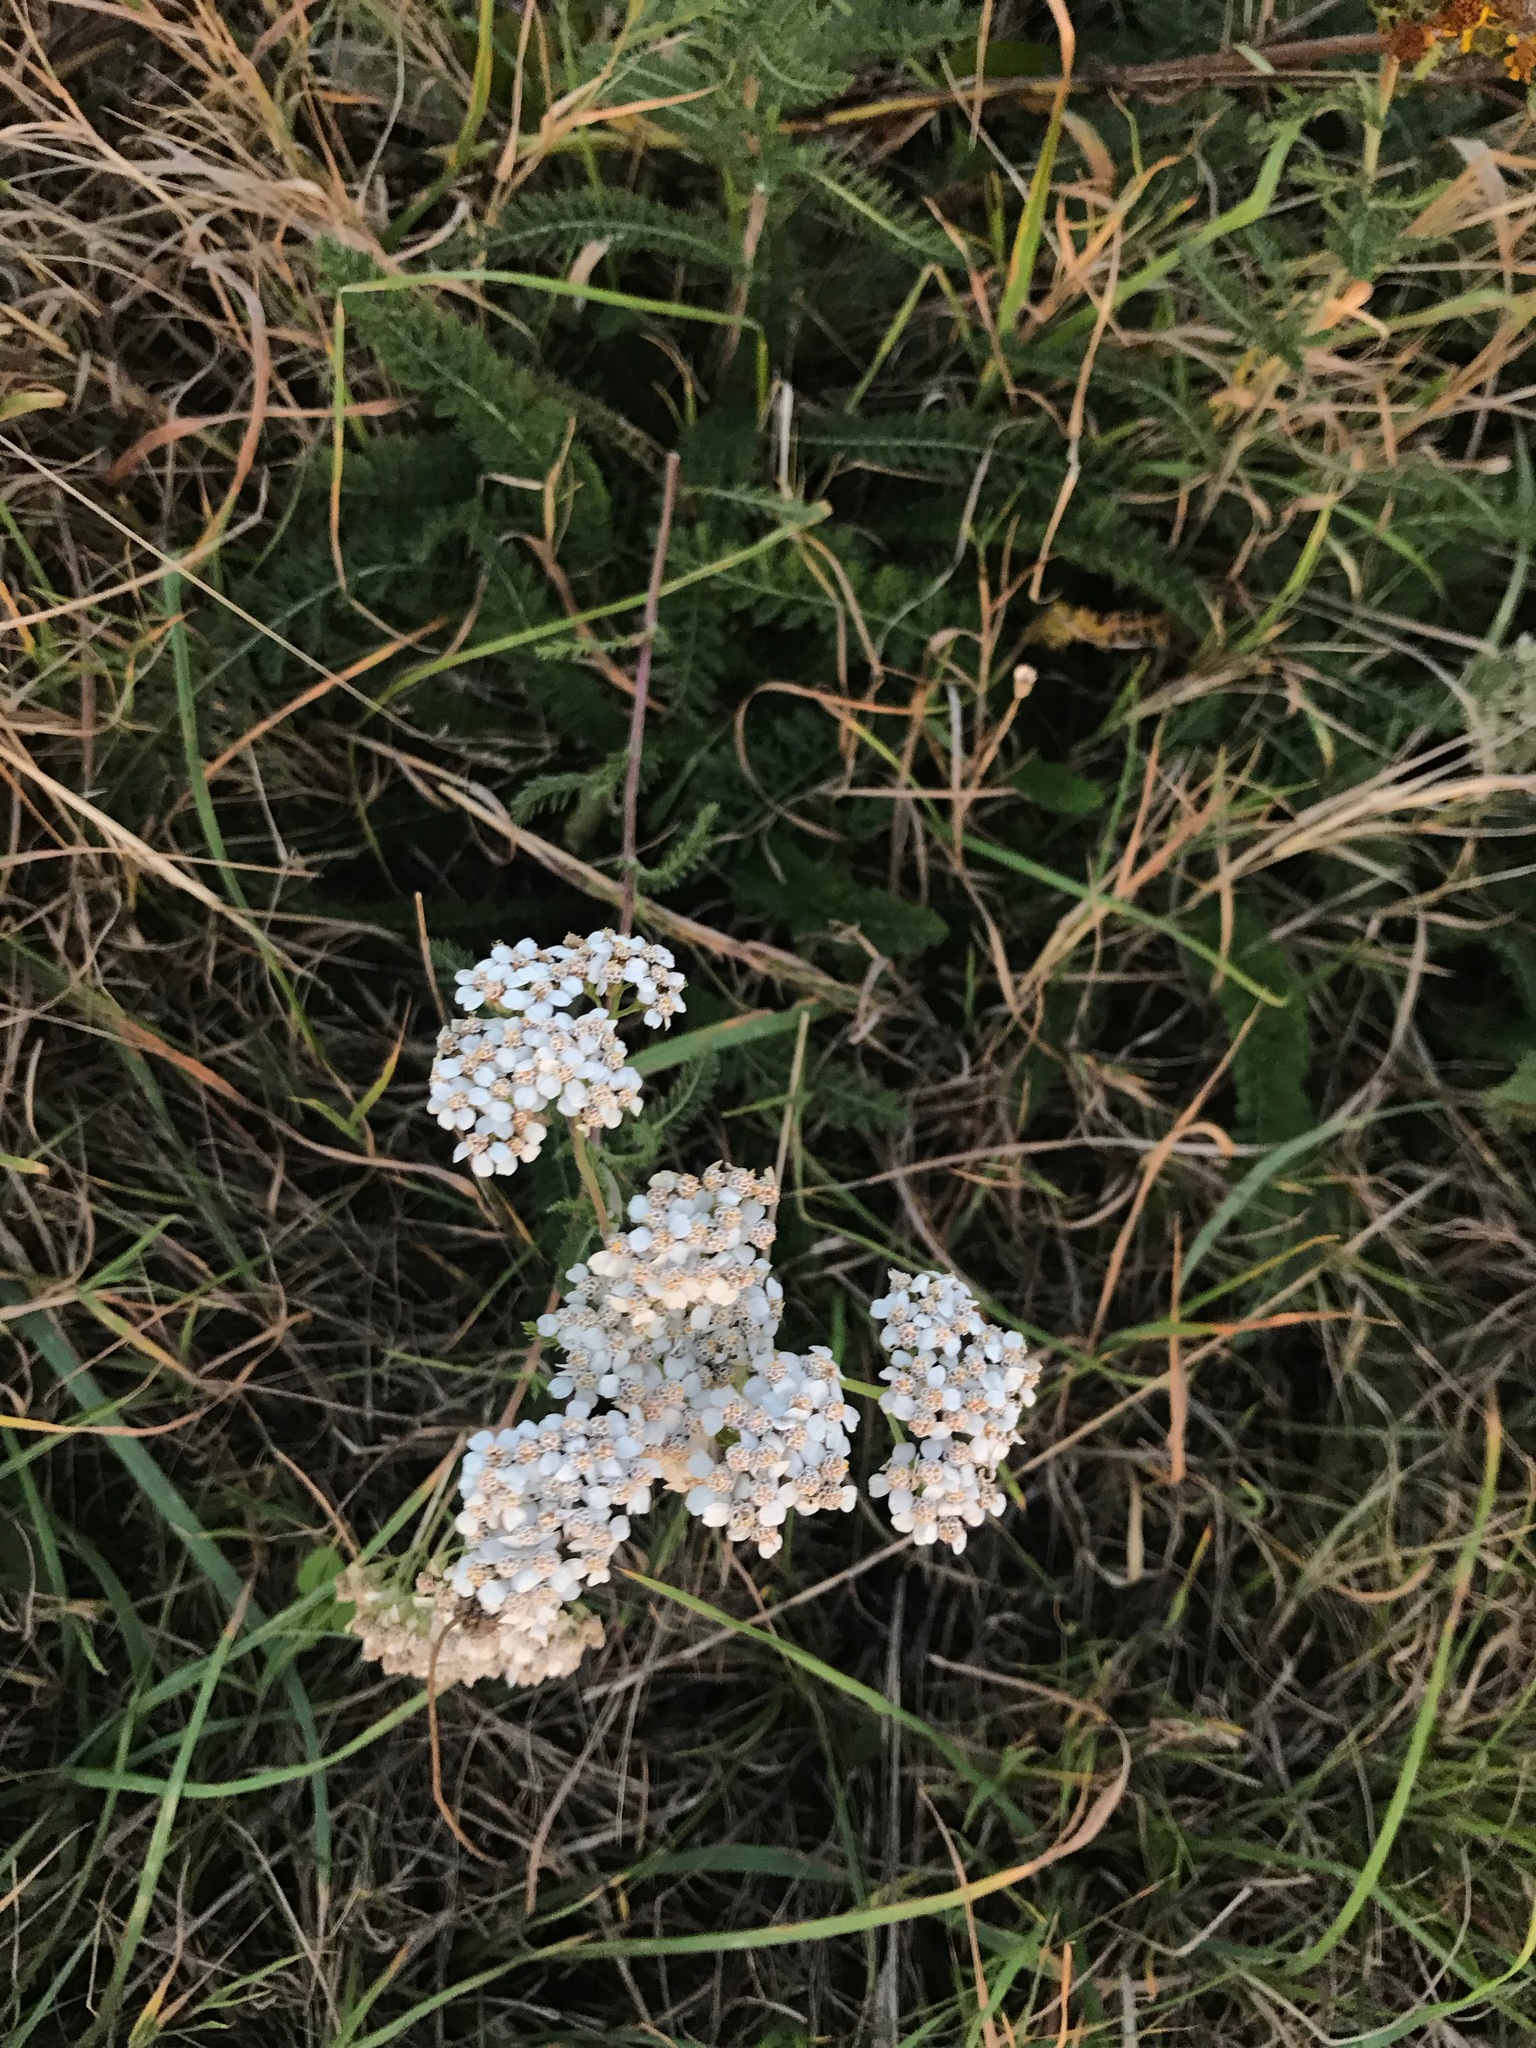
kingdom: Plantae
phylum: Tracheophyta
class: Magnoliopsida
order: Asterales
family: Asteraceae
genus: Achillea
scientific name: Achillea millefolium
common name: Yarrow
